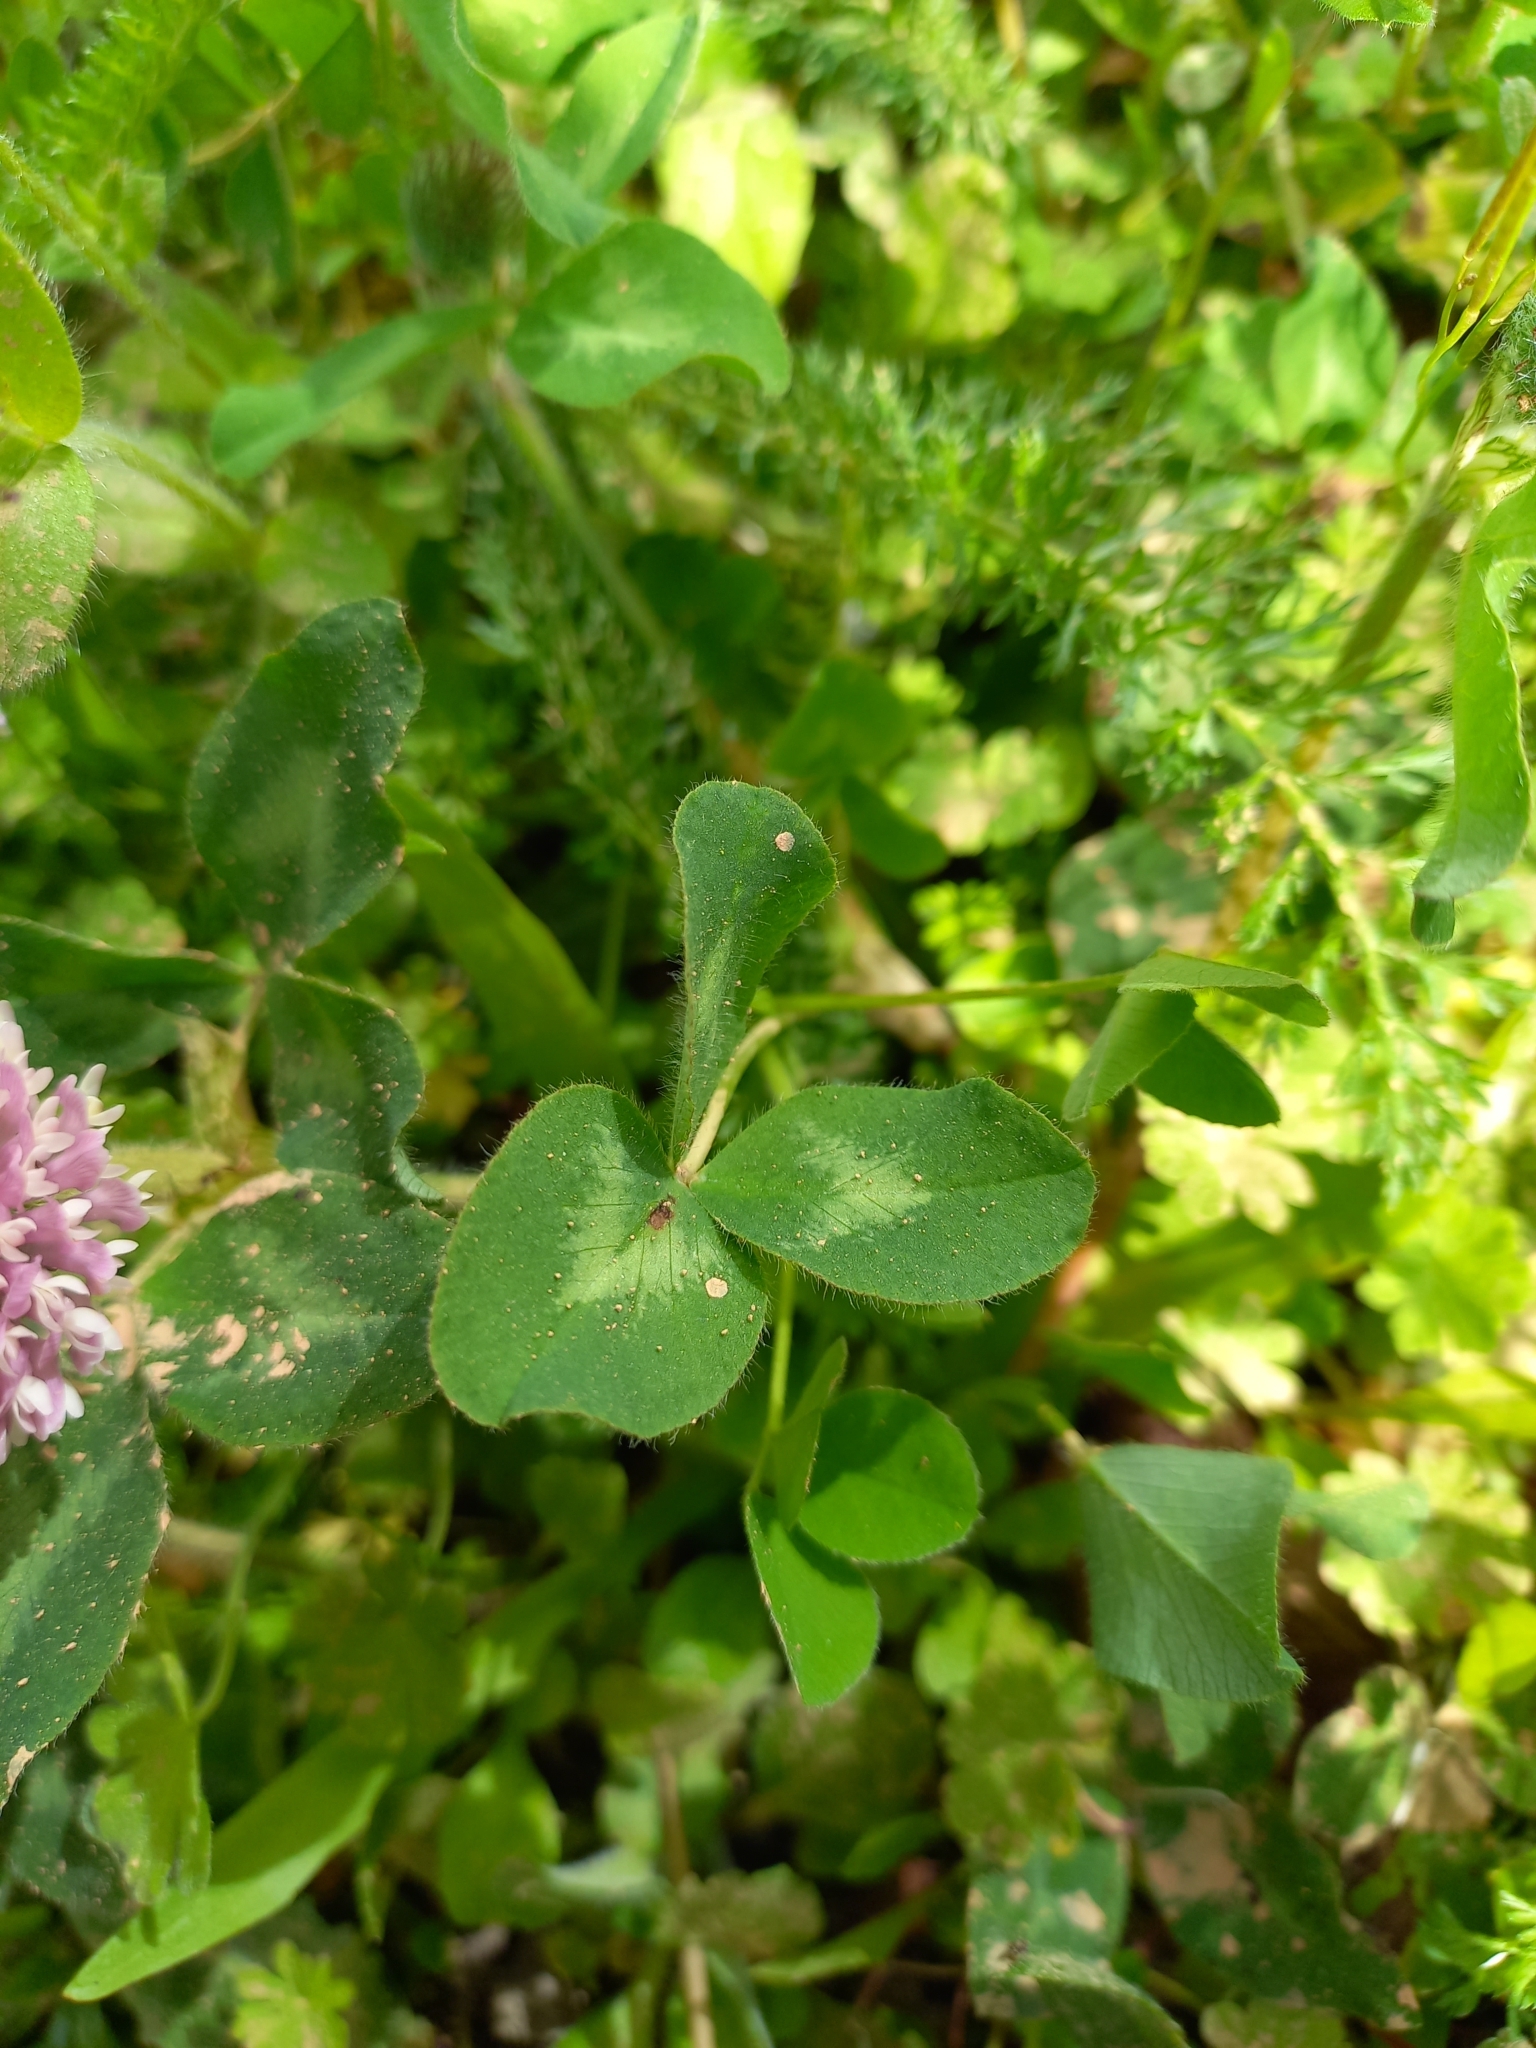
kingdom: Plantae
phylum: Tracheophyta
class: Magnoliopsida
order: Fabales
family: Fabaceae
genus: Trifolium
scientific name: Trifolium pratense
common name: Red clover
